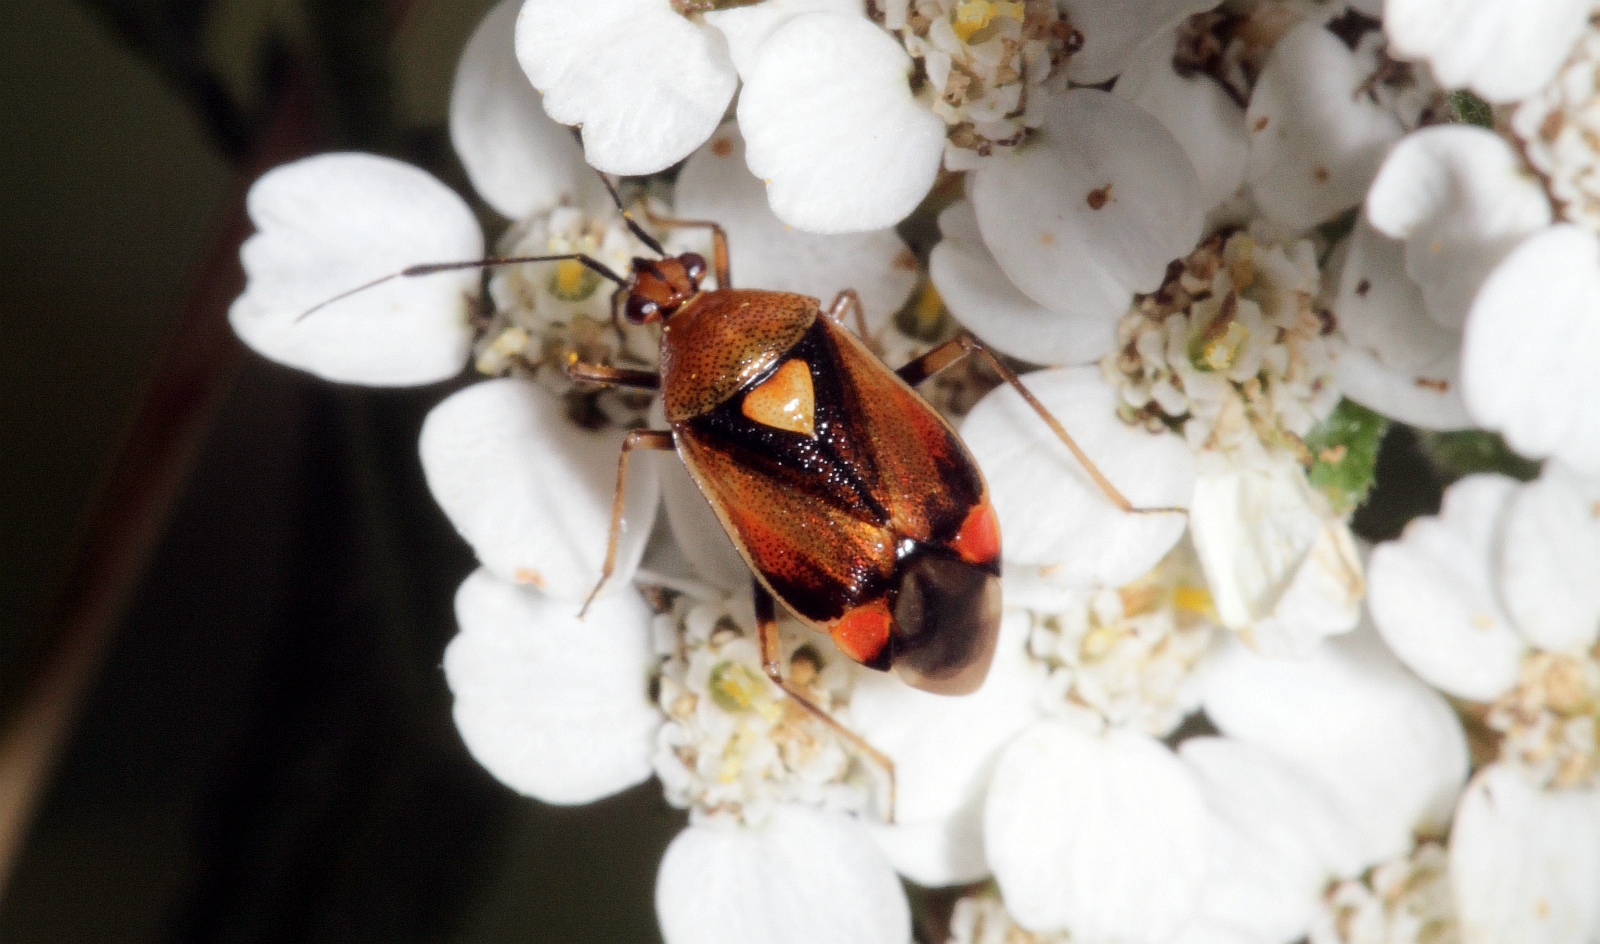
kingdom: Animalia
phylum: Arthropoda
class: Insecta
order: Hemiptera
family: Miridae
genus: Deraeocoris
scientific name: Deraeocoris ruber
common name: Plant bug
